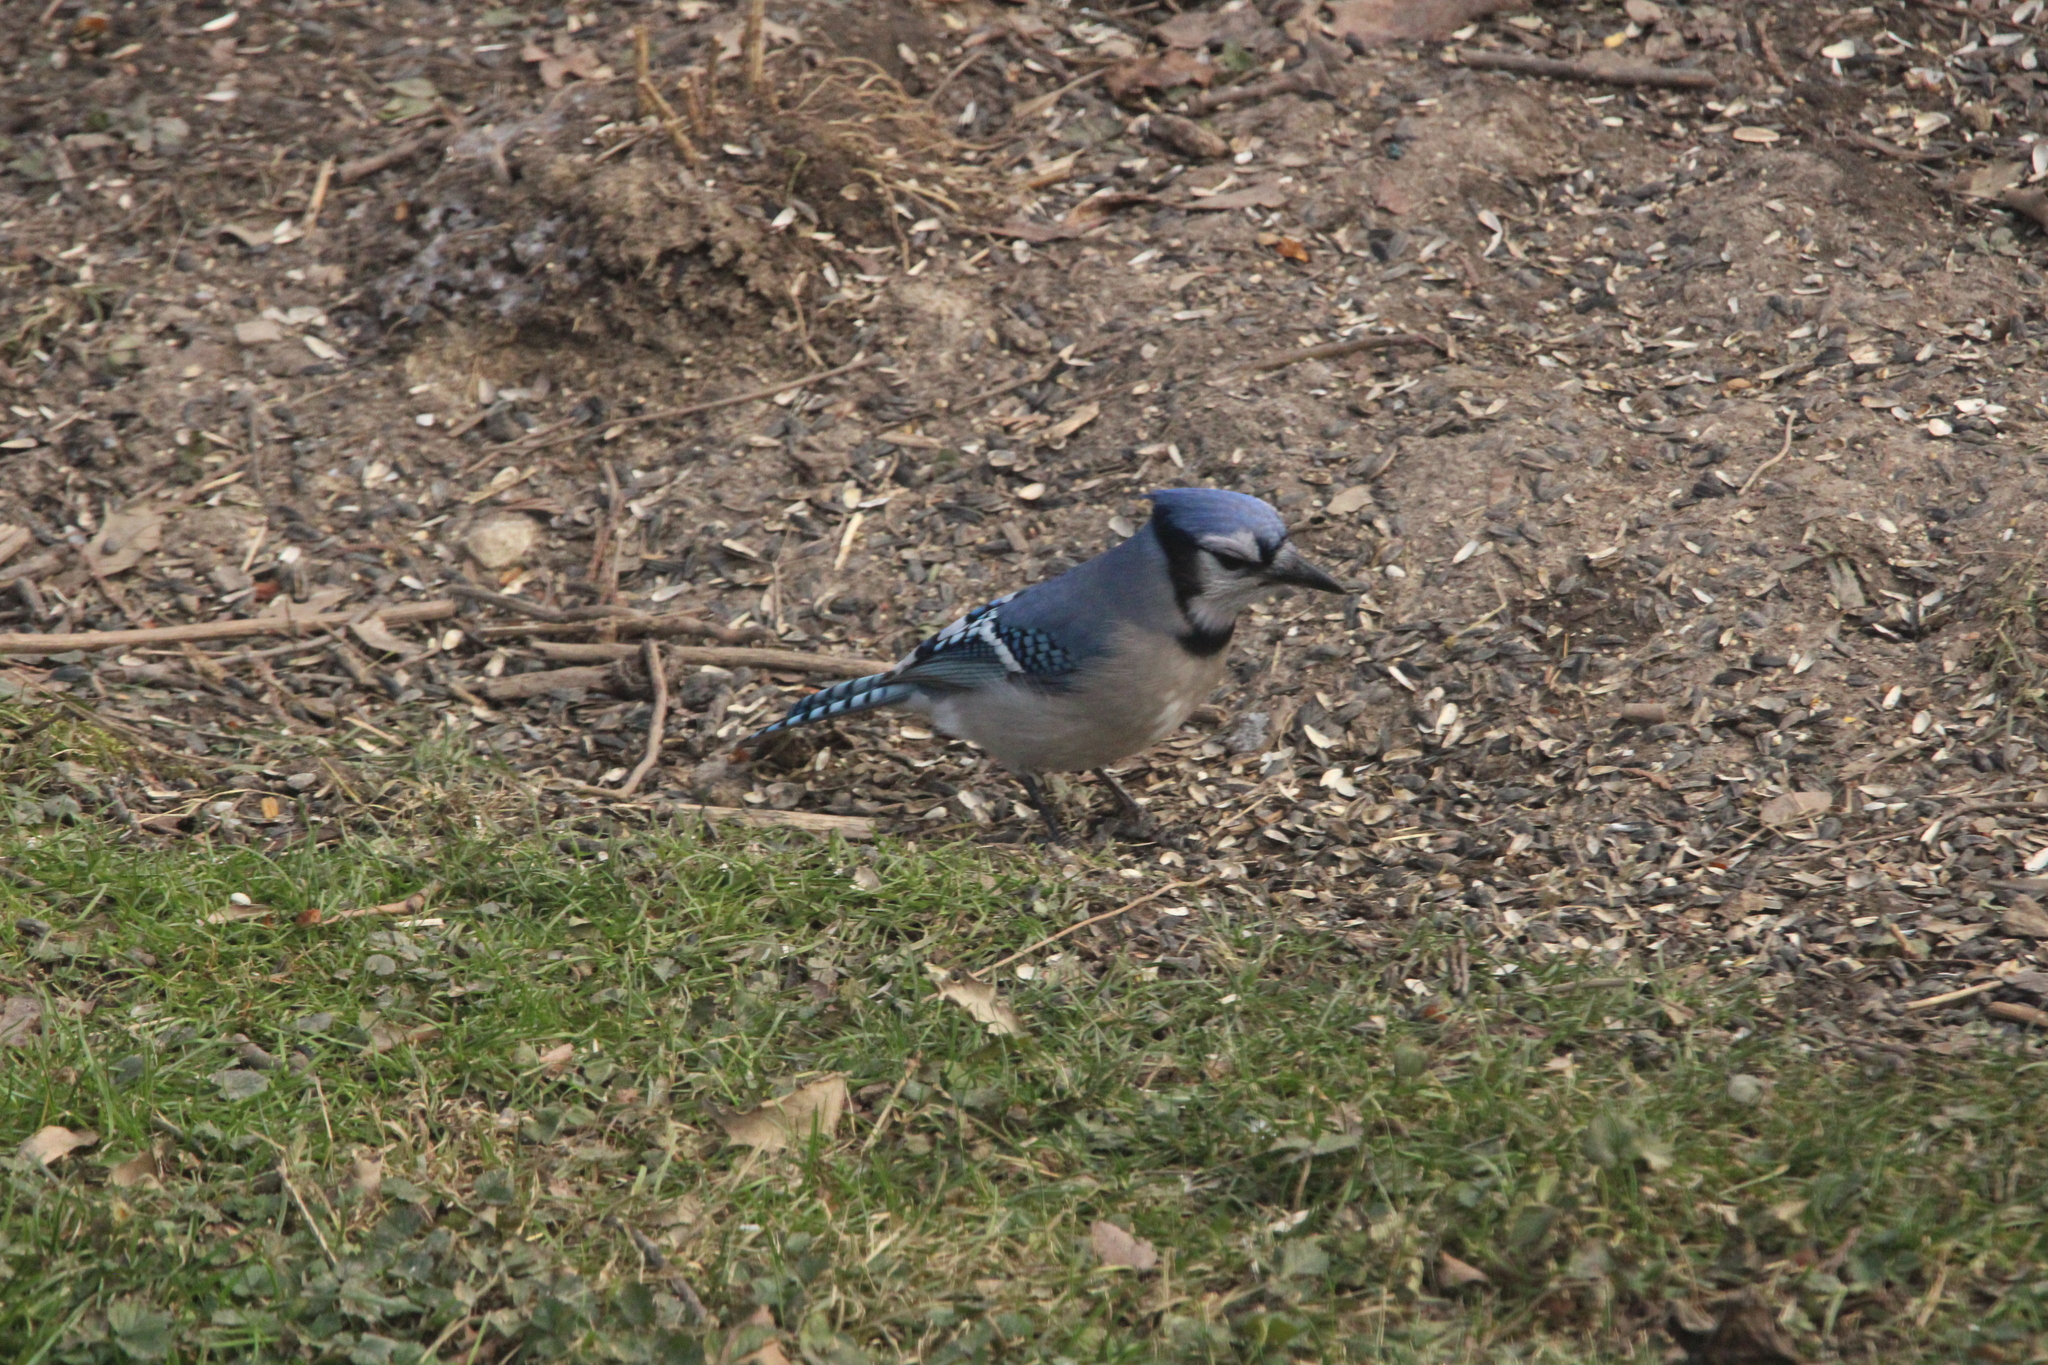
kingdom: Animalia
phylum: Chordata
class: Aves
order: Passeriformes
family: Corvidae
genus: Cyanocitta
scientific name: Cyanocitta cristata
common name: Blue jay
